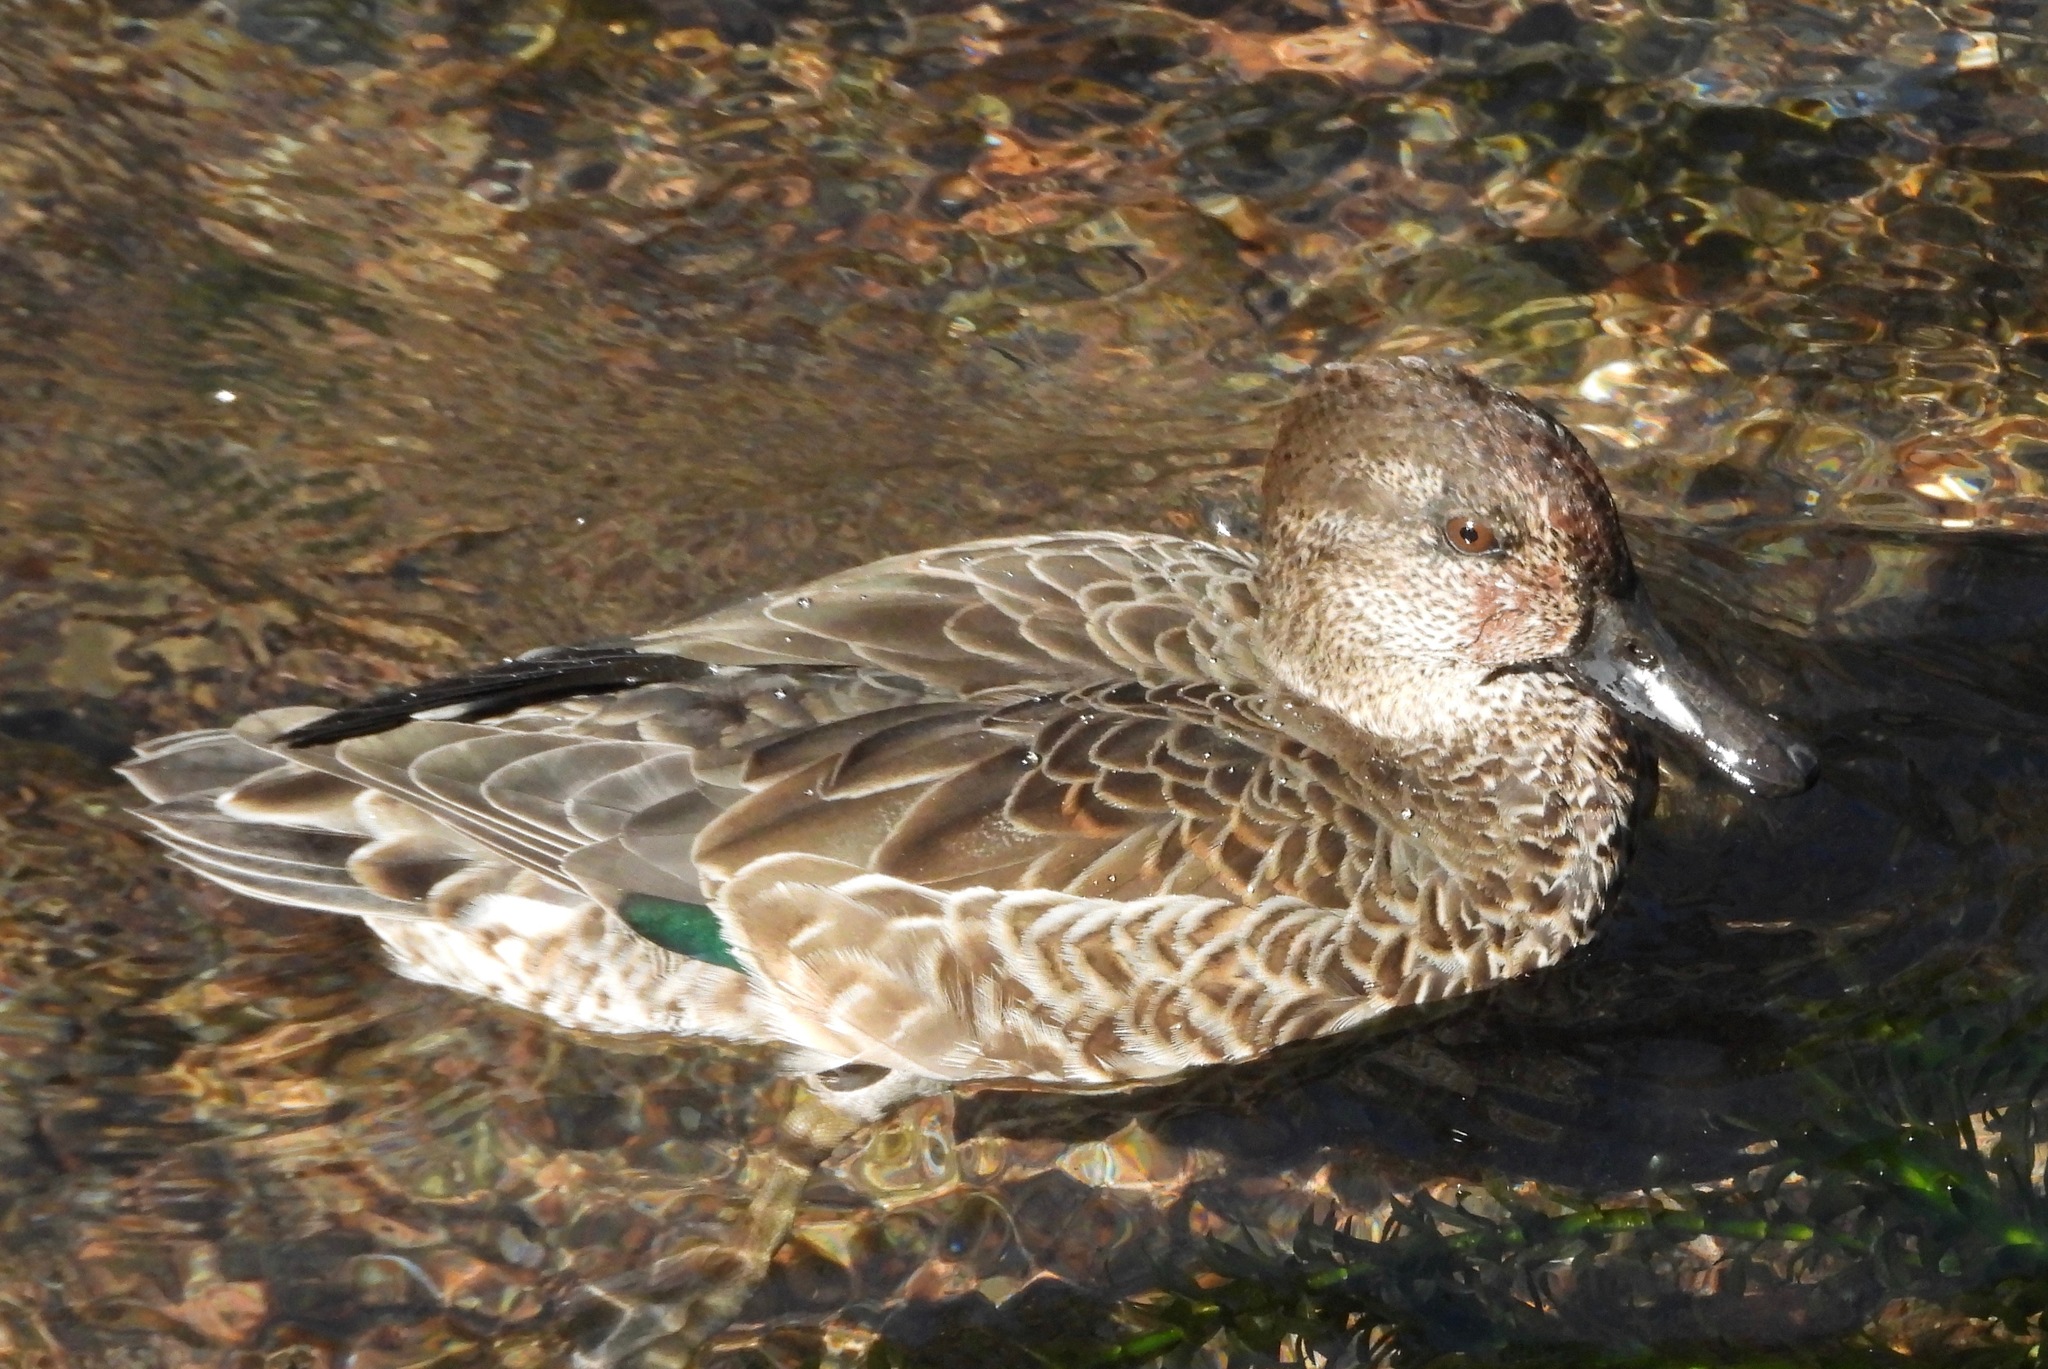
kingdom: Animalia
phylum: Chordata
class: Aves
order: Anseriformes
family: Anatidae
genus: Anas
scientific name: Anas crecca
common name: Eurasian teal
